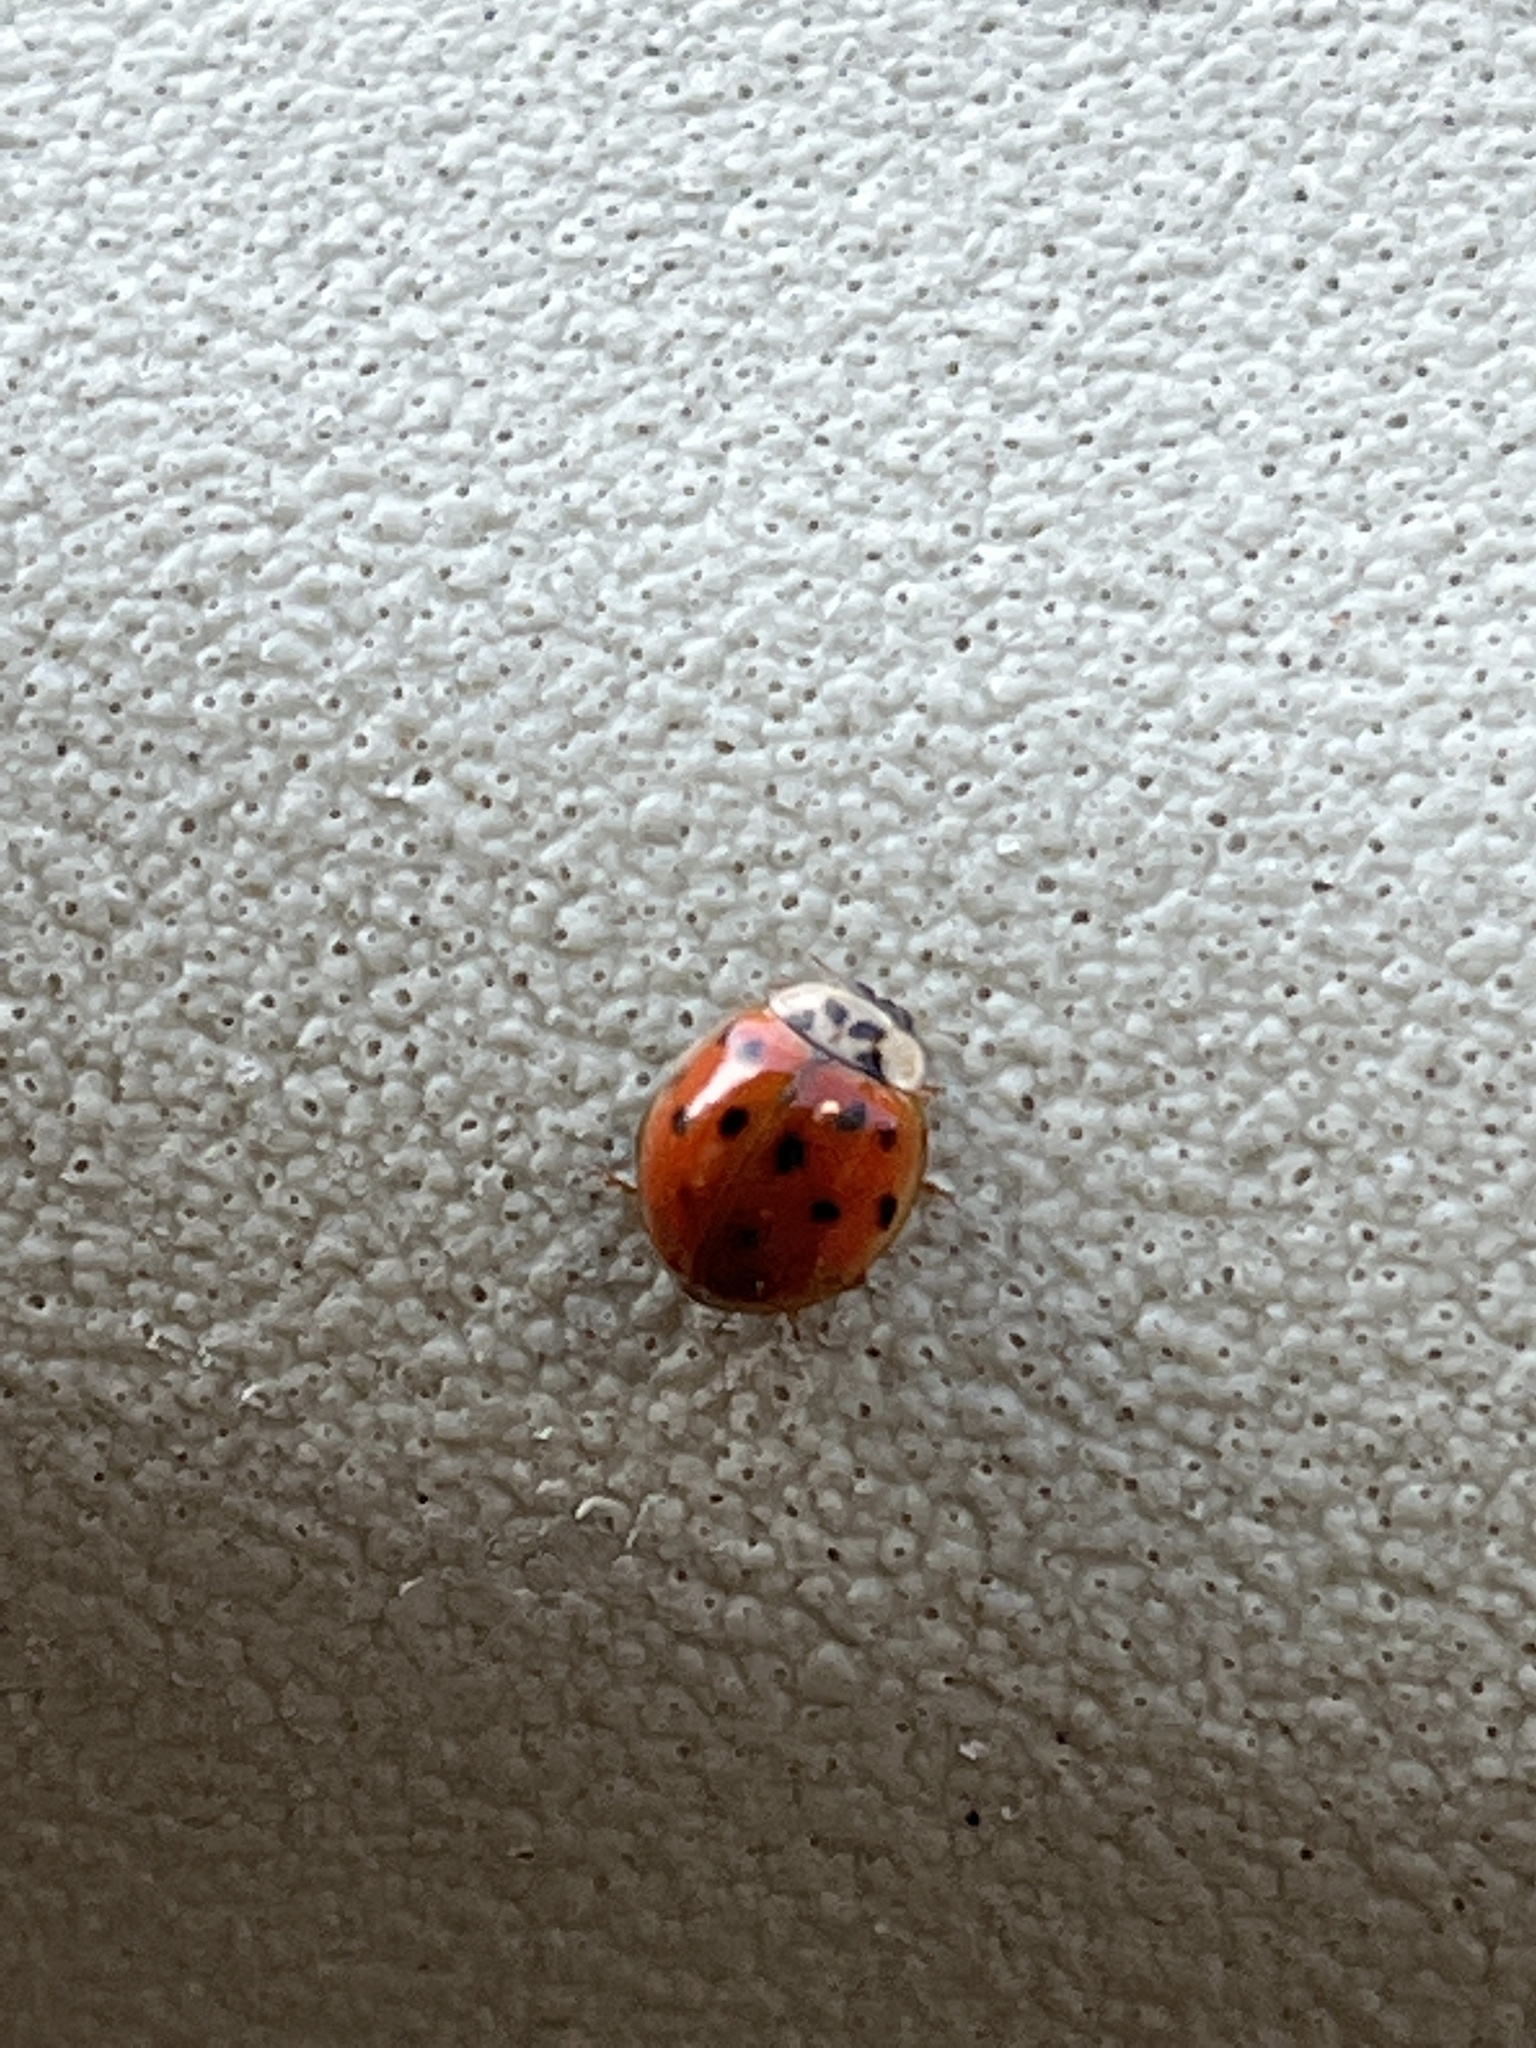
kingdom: Animalia
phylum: Arthropoda
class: Insecta
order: Coleoptera
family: Coccinellidae
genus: Harmonia
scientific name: Harmonia axyridis
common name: Harlequin ladybird
